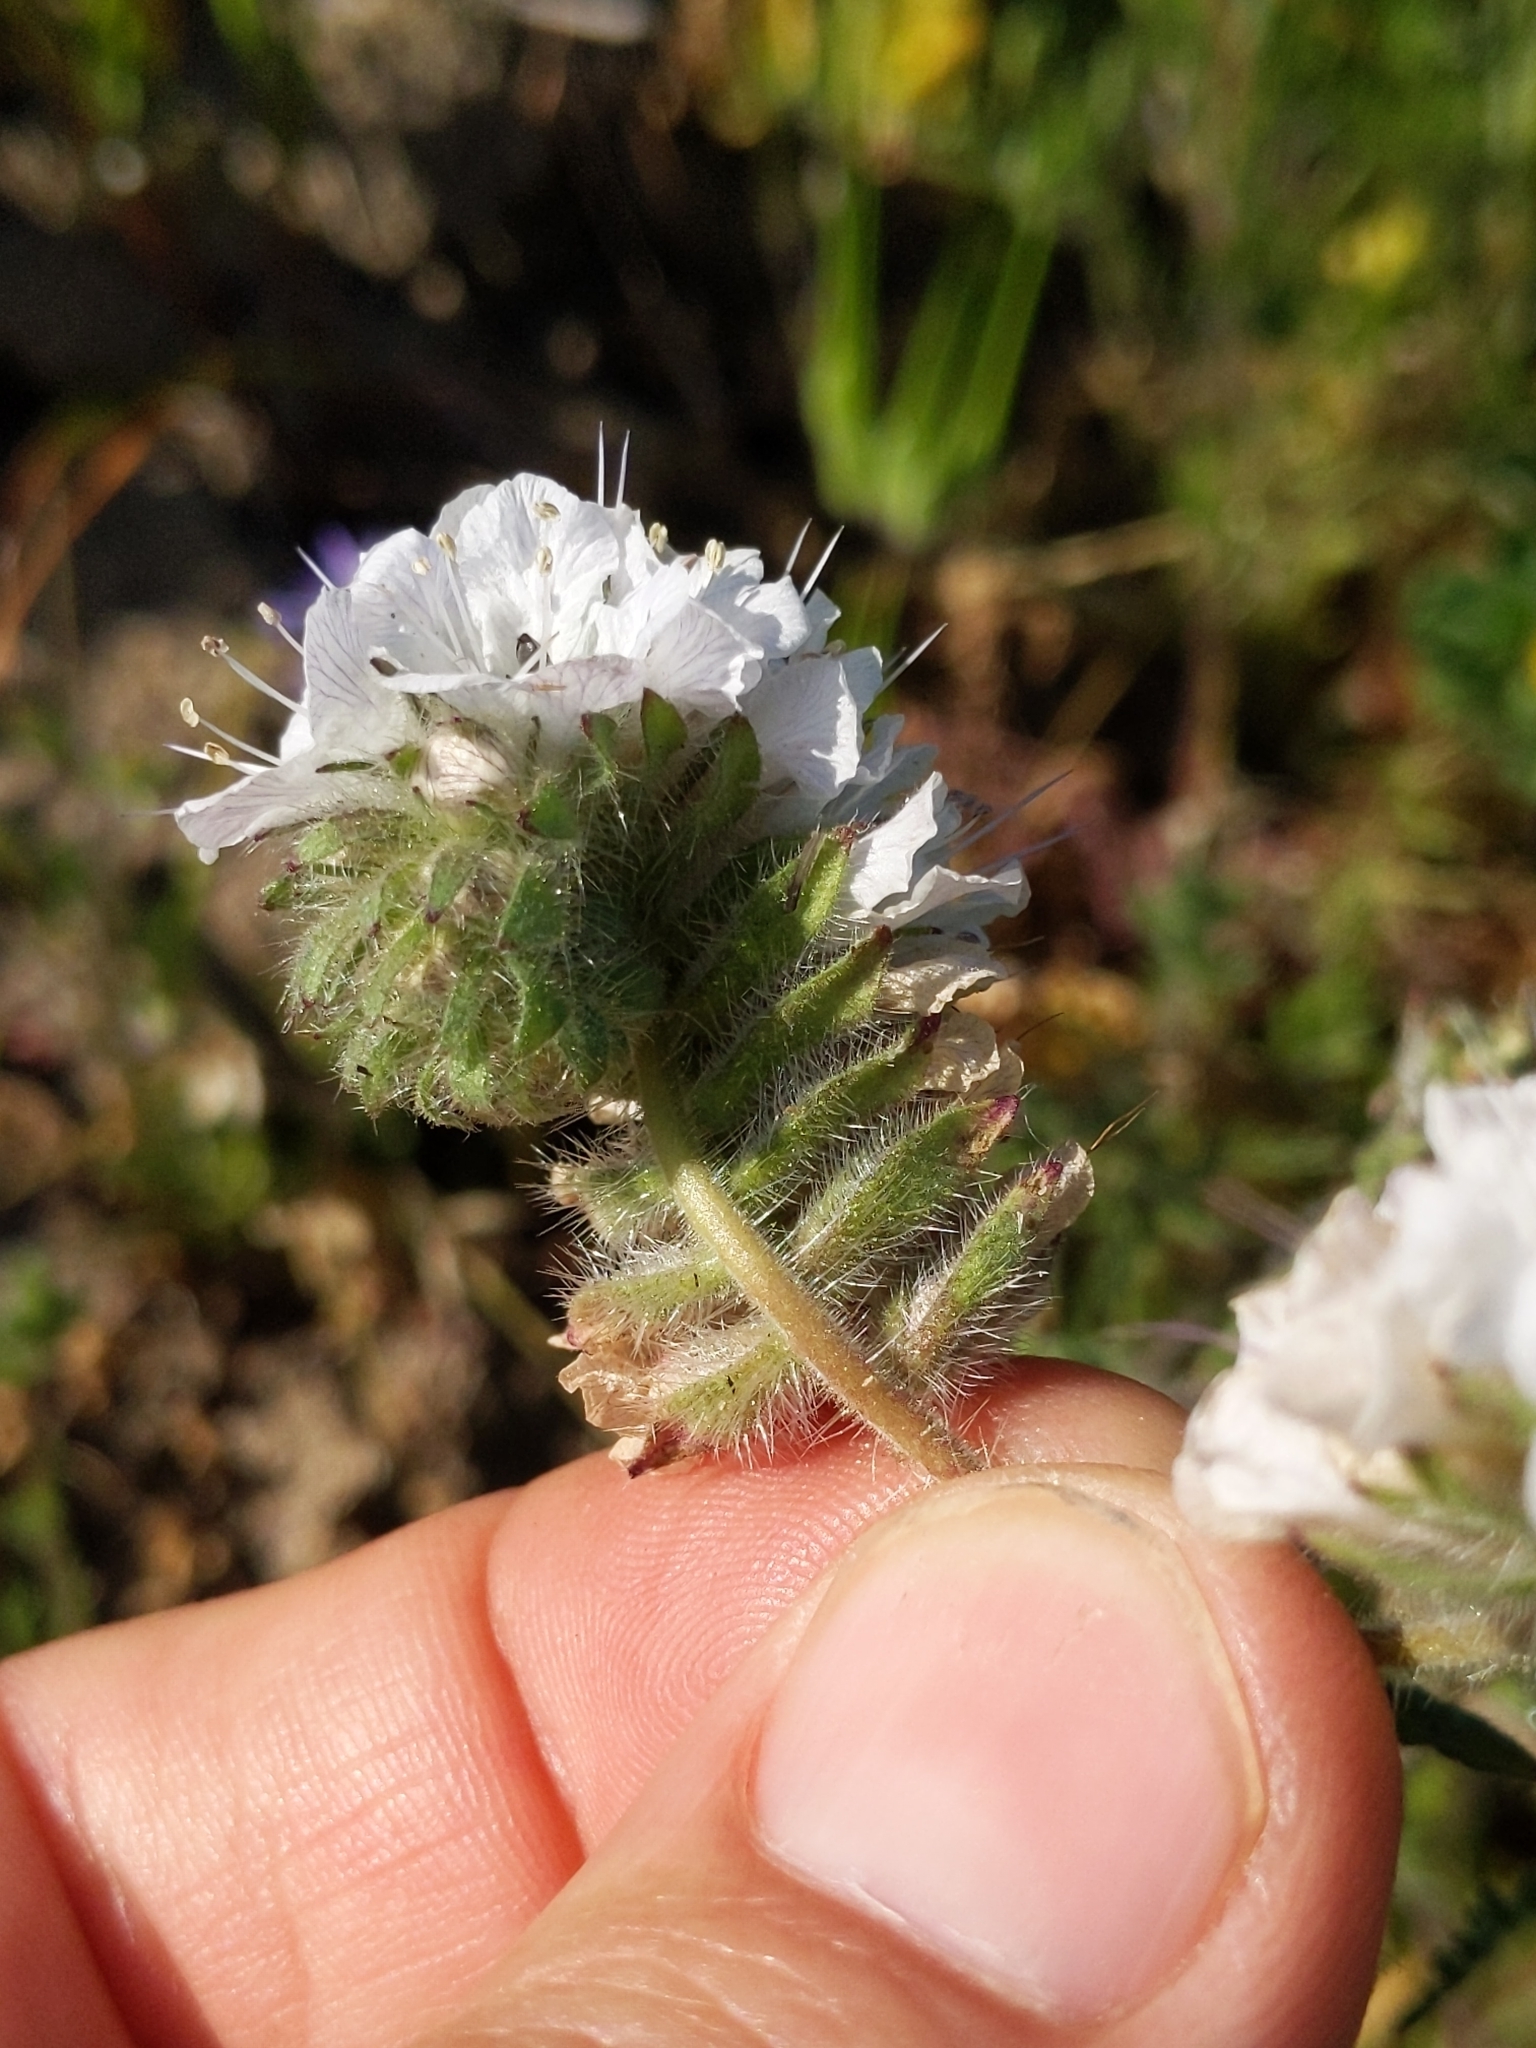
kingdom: Plantae
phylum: Tracheophyta
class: Magnoliopsida
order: Boraginales
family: Hydrophyllaceae
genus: Phacelia
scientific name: Phacelia distans
